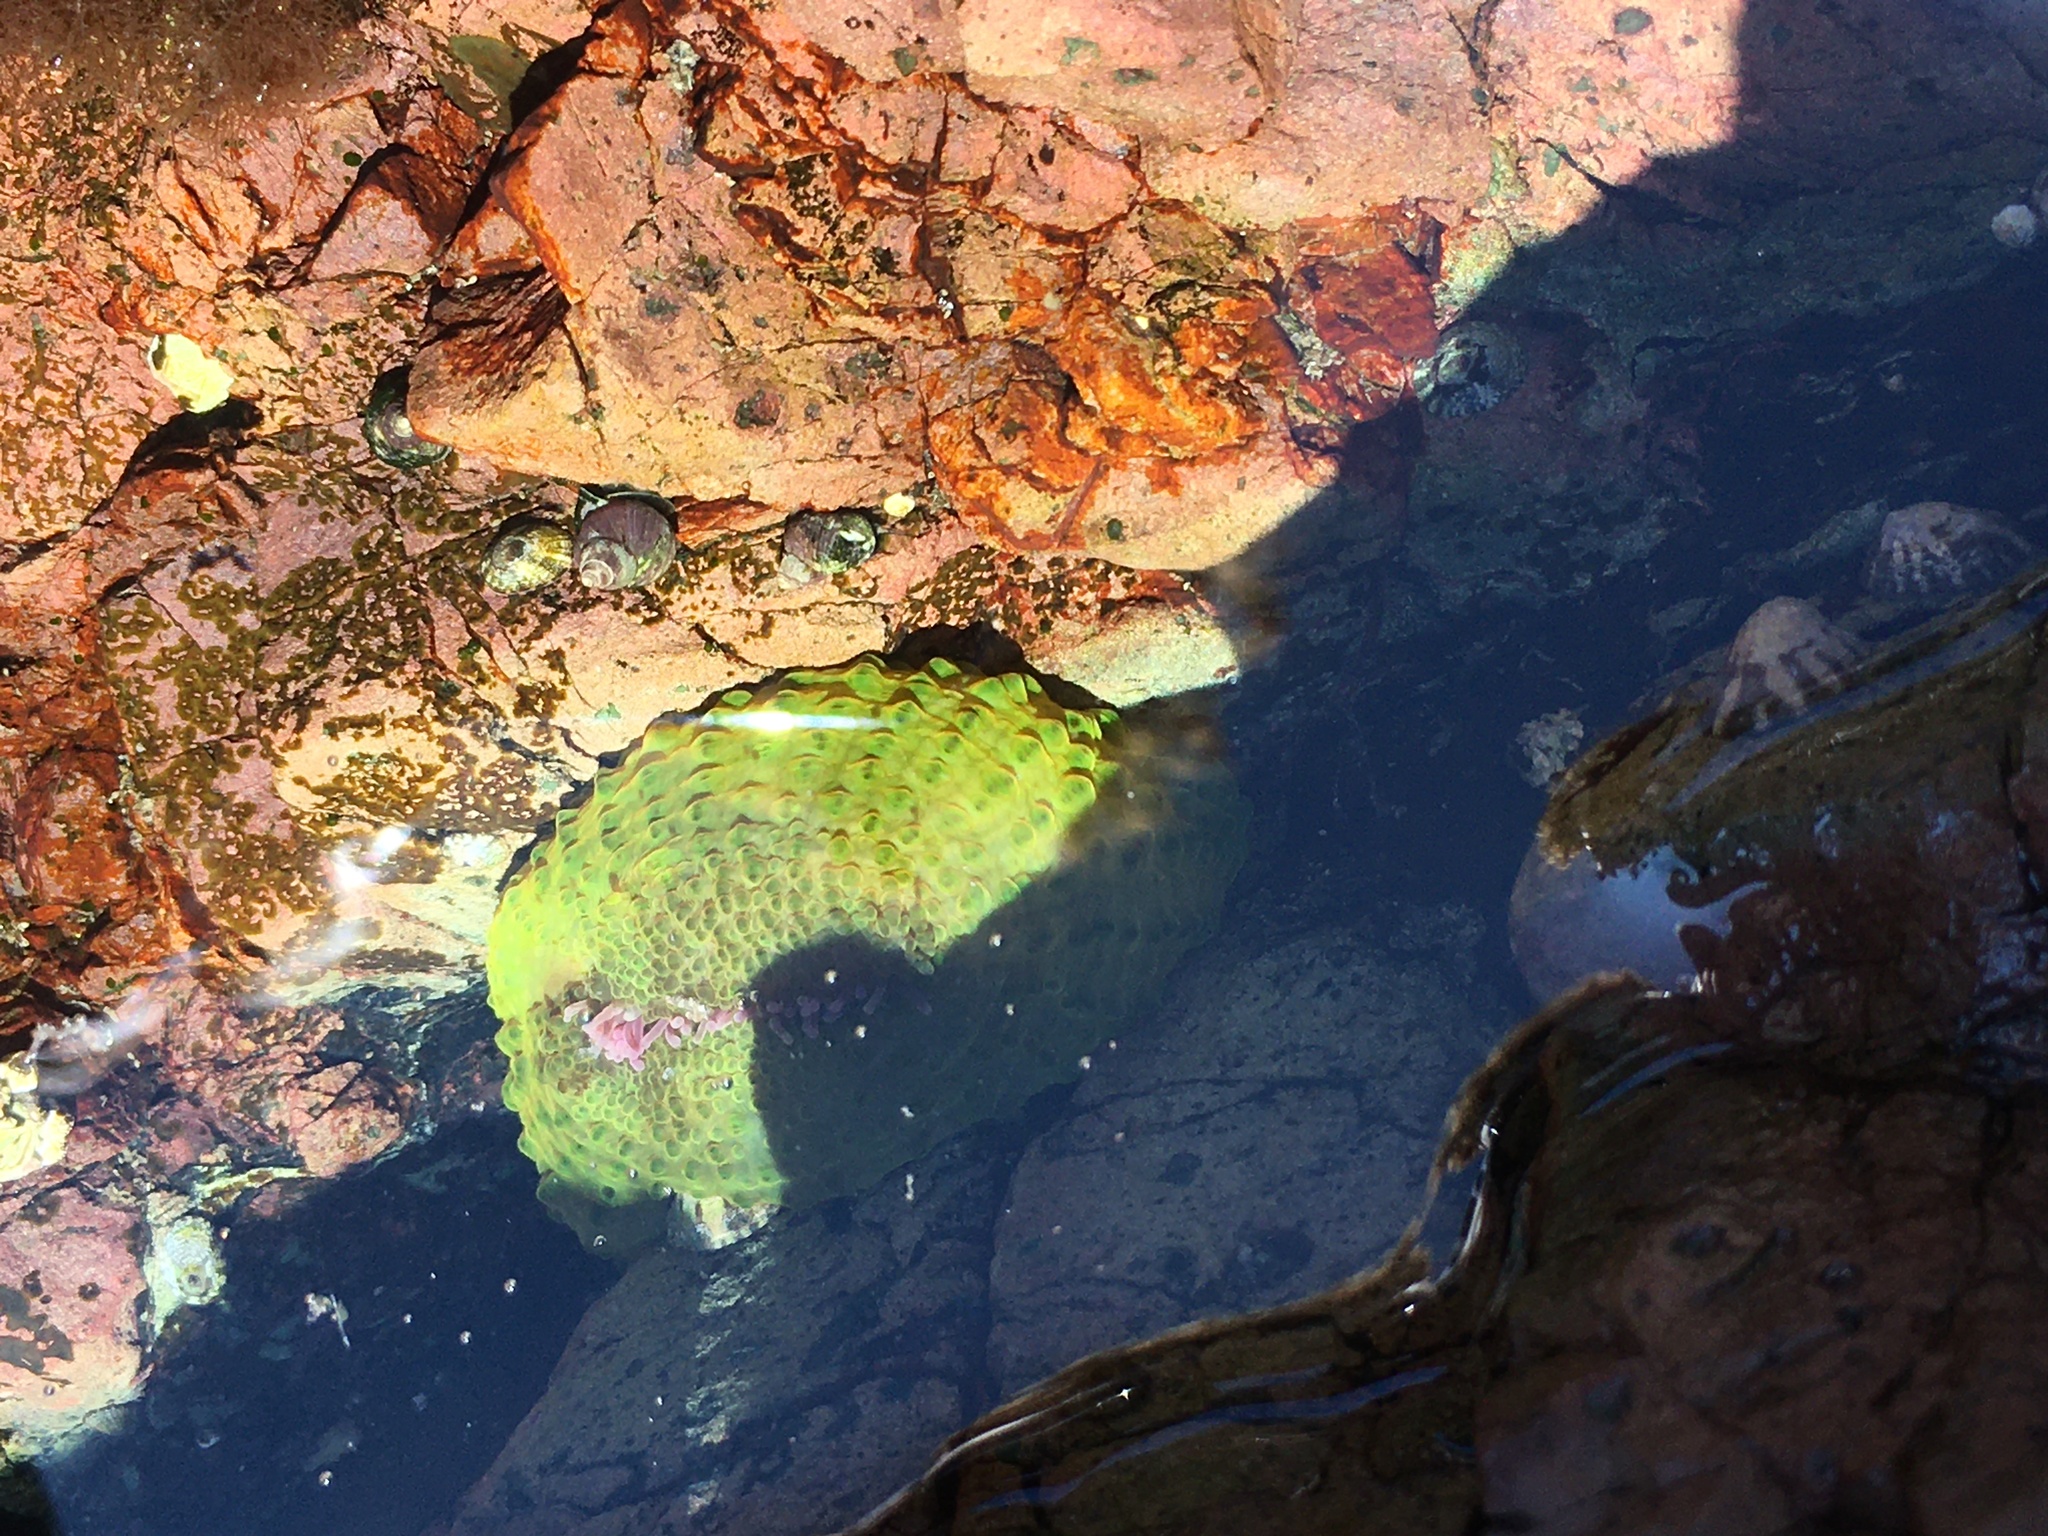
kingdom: Animalia
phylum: Cnidaria
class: Anthozoa
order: Actiniaria
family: Actiniidae
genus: Anthopleura
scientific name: Anthopleura elegantissima
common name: Clonal anemone
